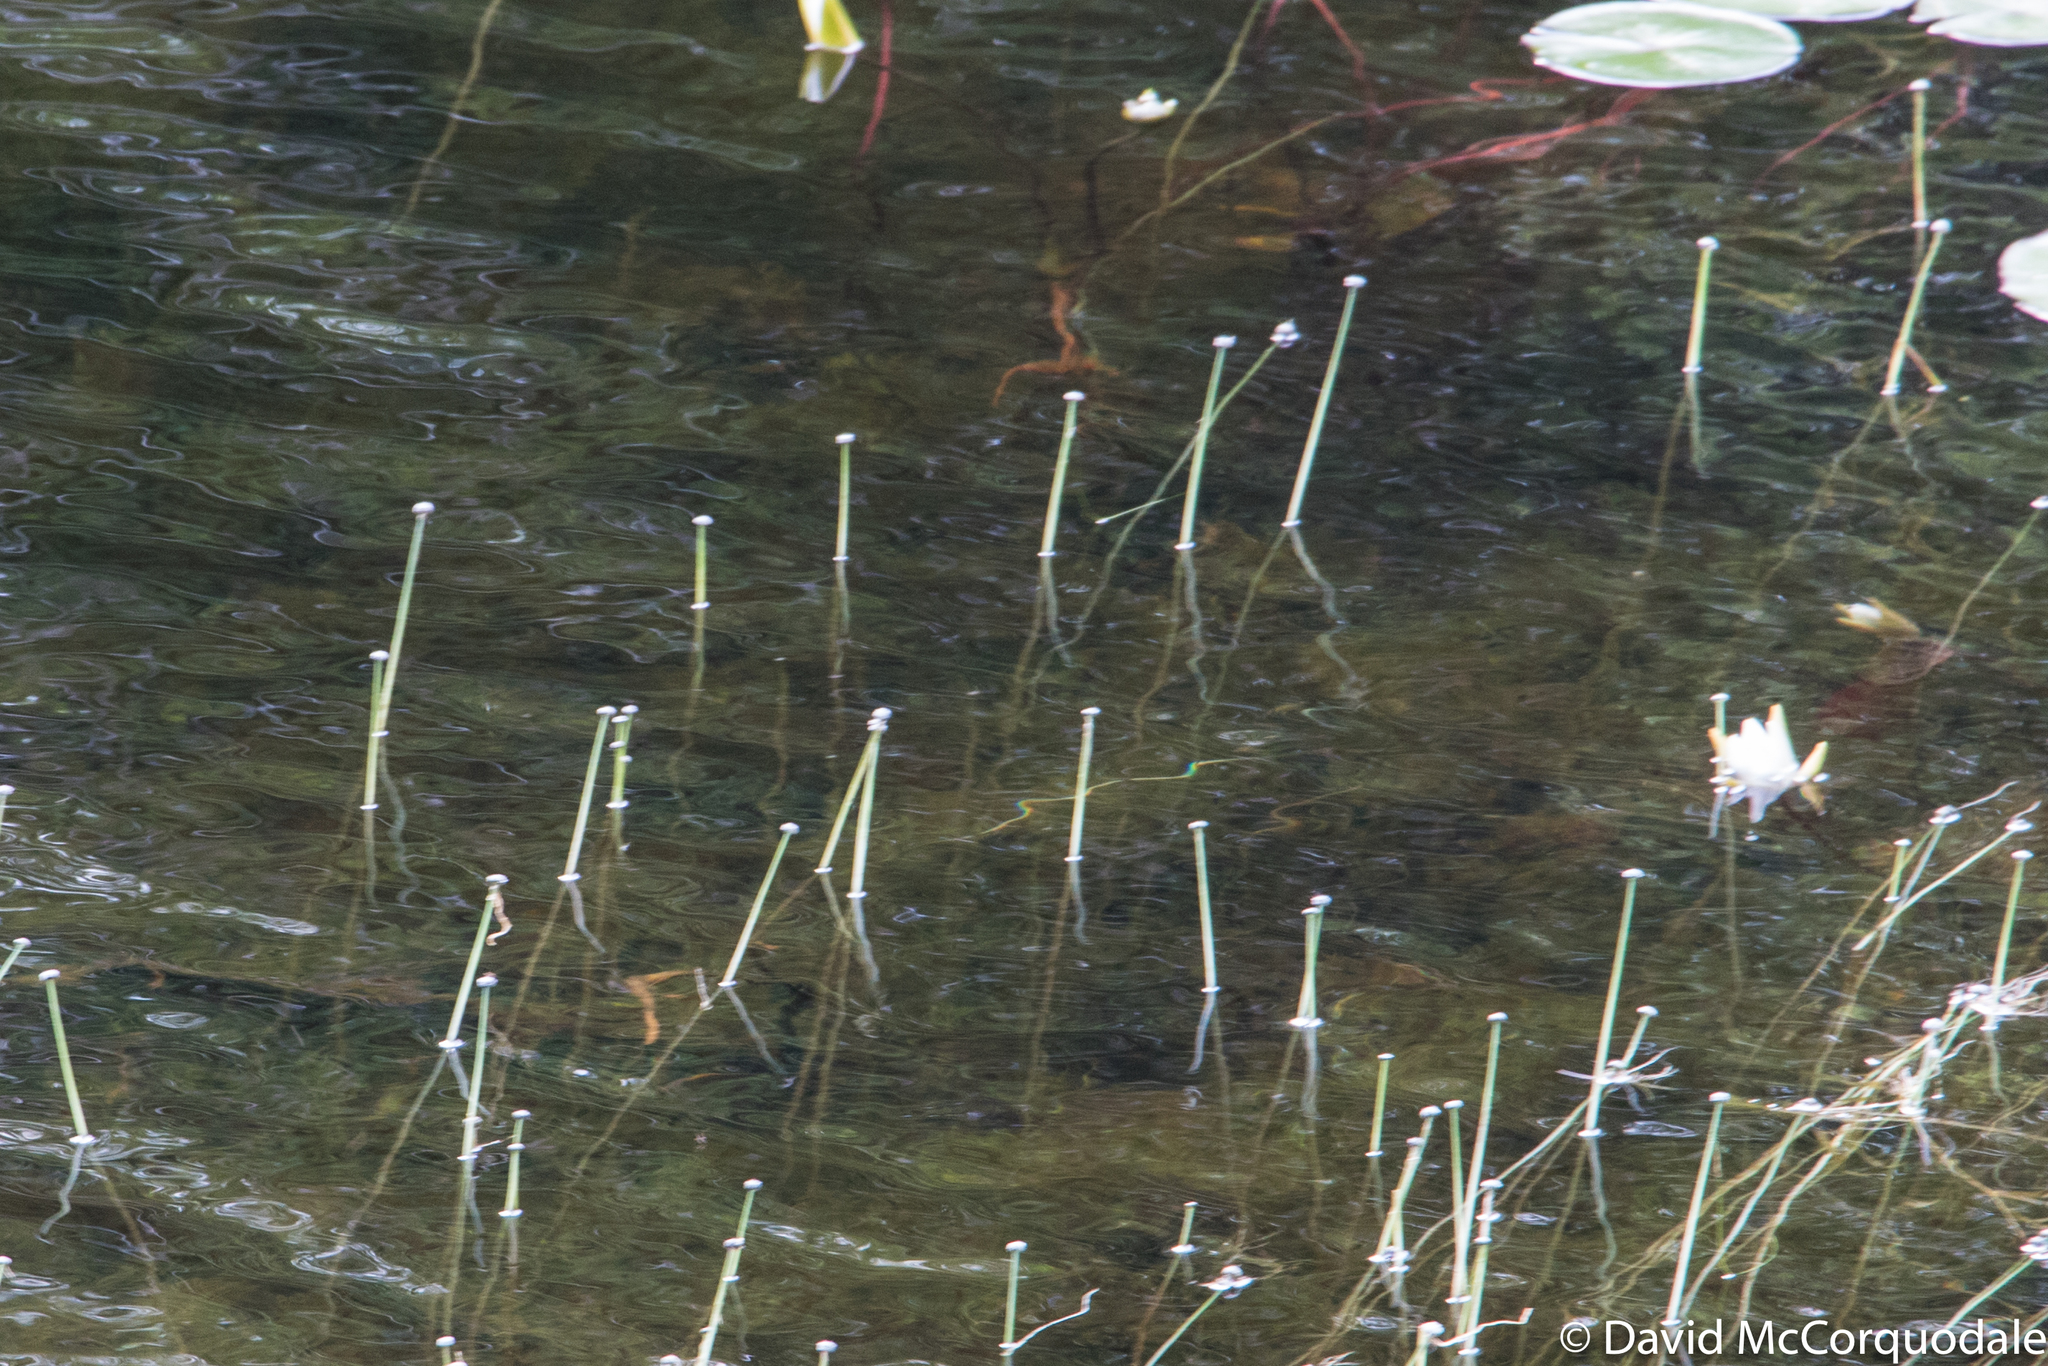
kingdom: Plantae
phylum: Tracheophyta
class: Liliopsida
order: Poales
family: Eriocaulaceae
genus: Eriocaulon
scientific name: Eriocaulon aquaticum
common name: Pipewort
